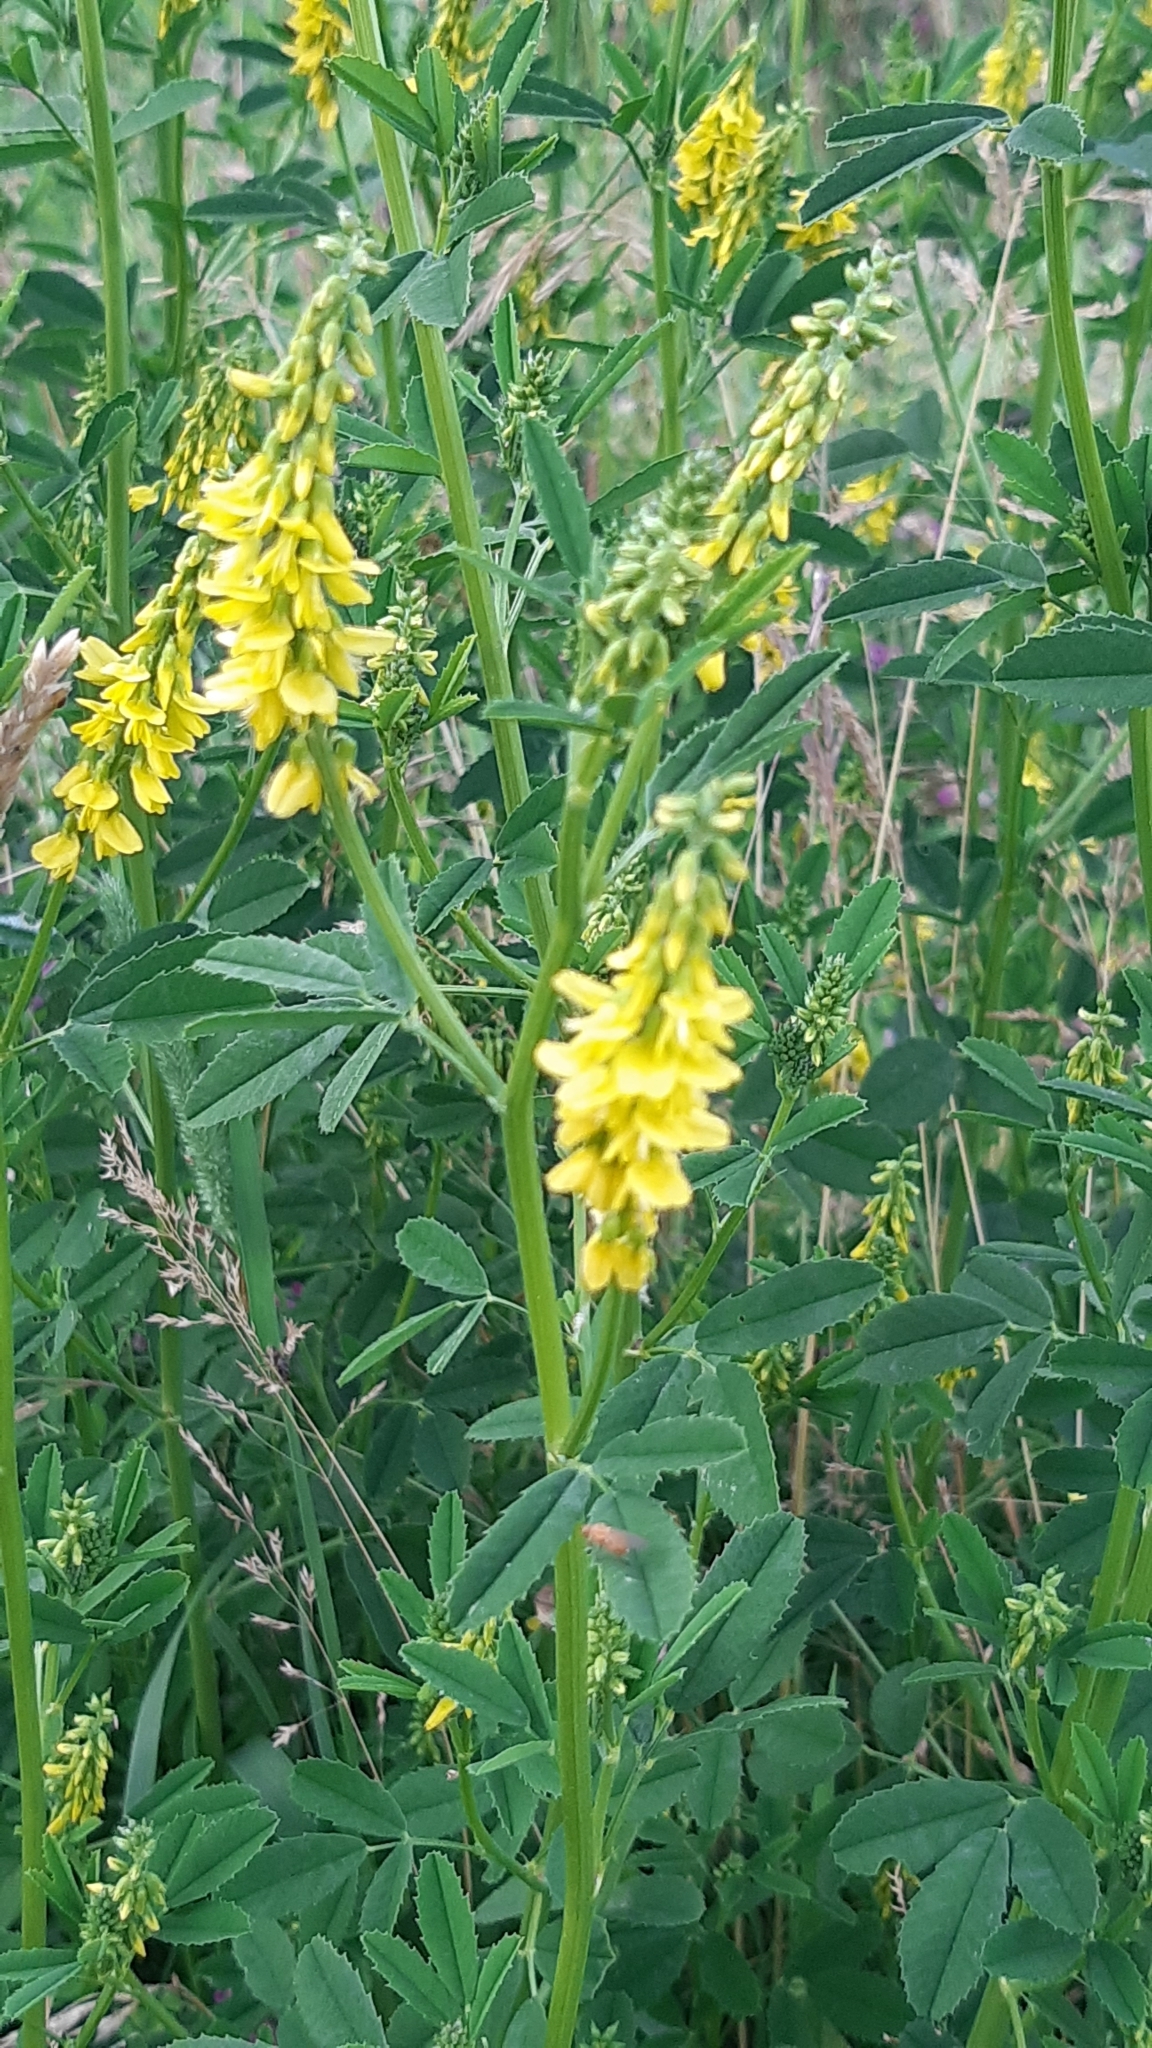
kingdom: Plantae
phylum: Tracheophyta
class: Magnoliopsida
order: Fabales
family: Fabaceae
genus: Melilotus
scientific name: Melilotus officinalis
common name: Sweetclover
